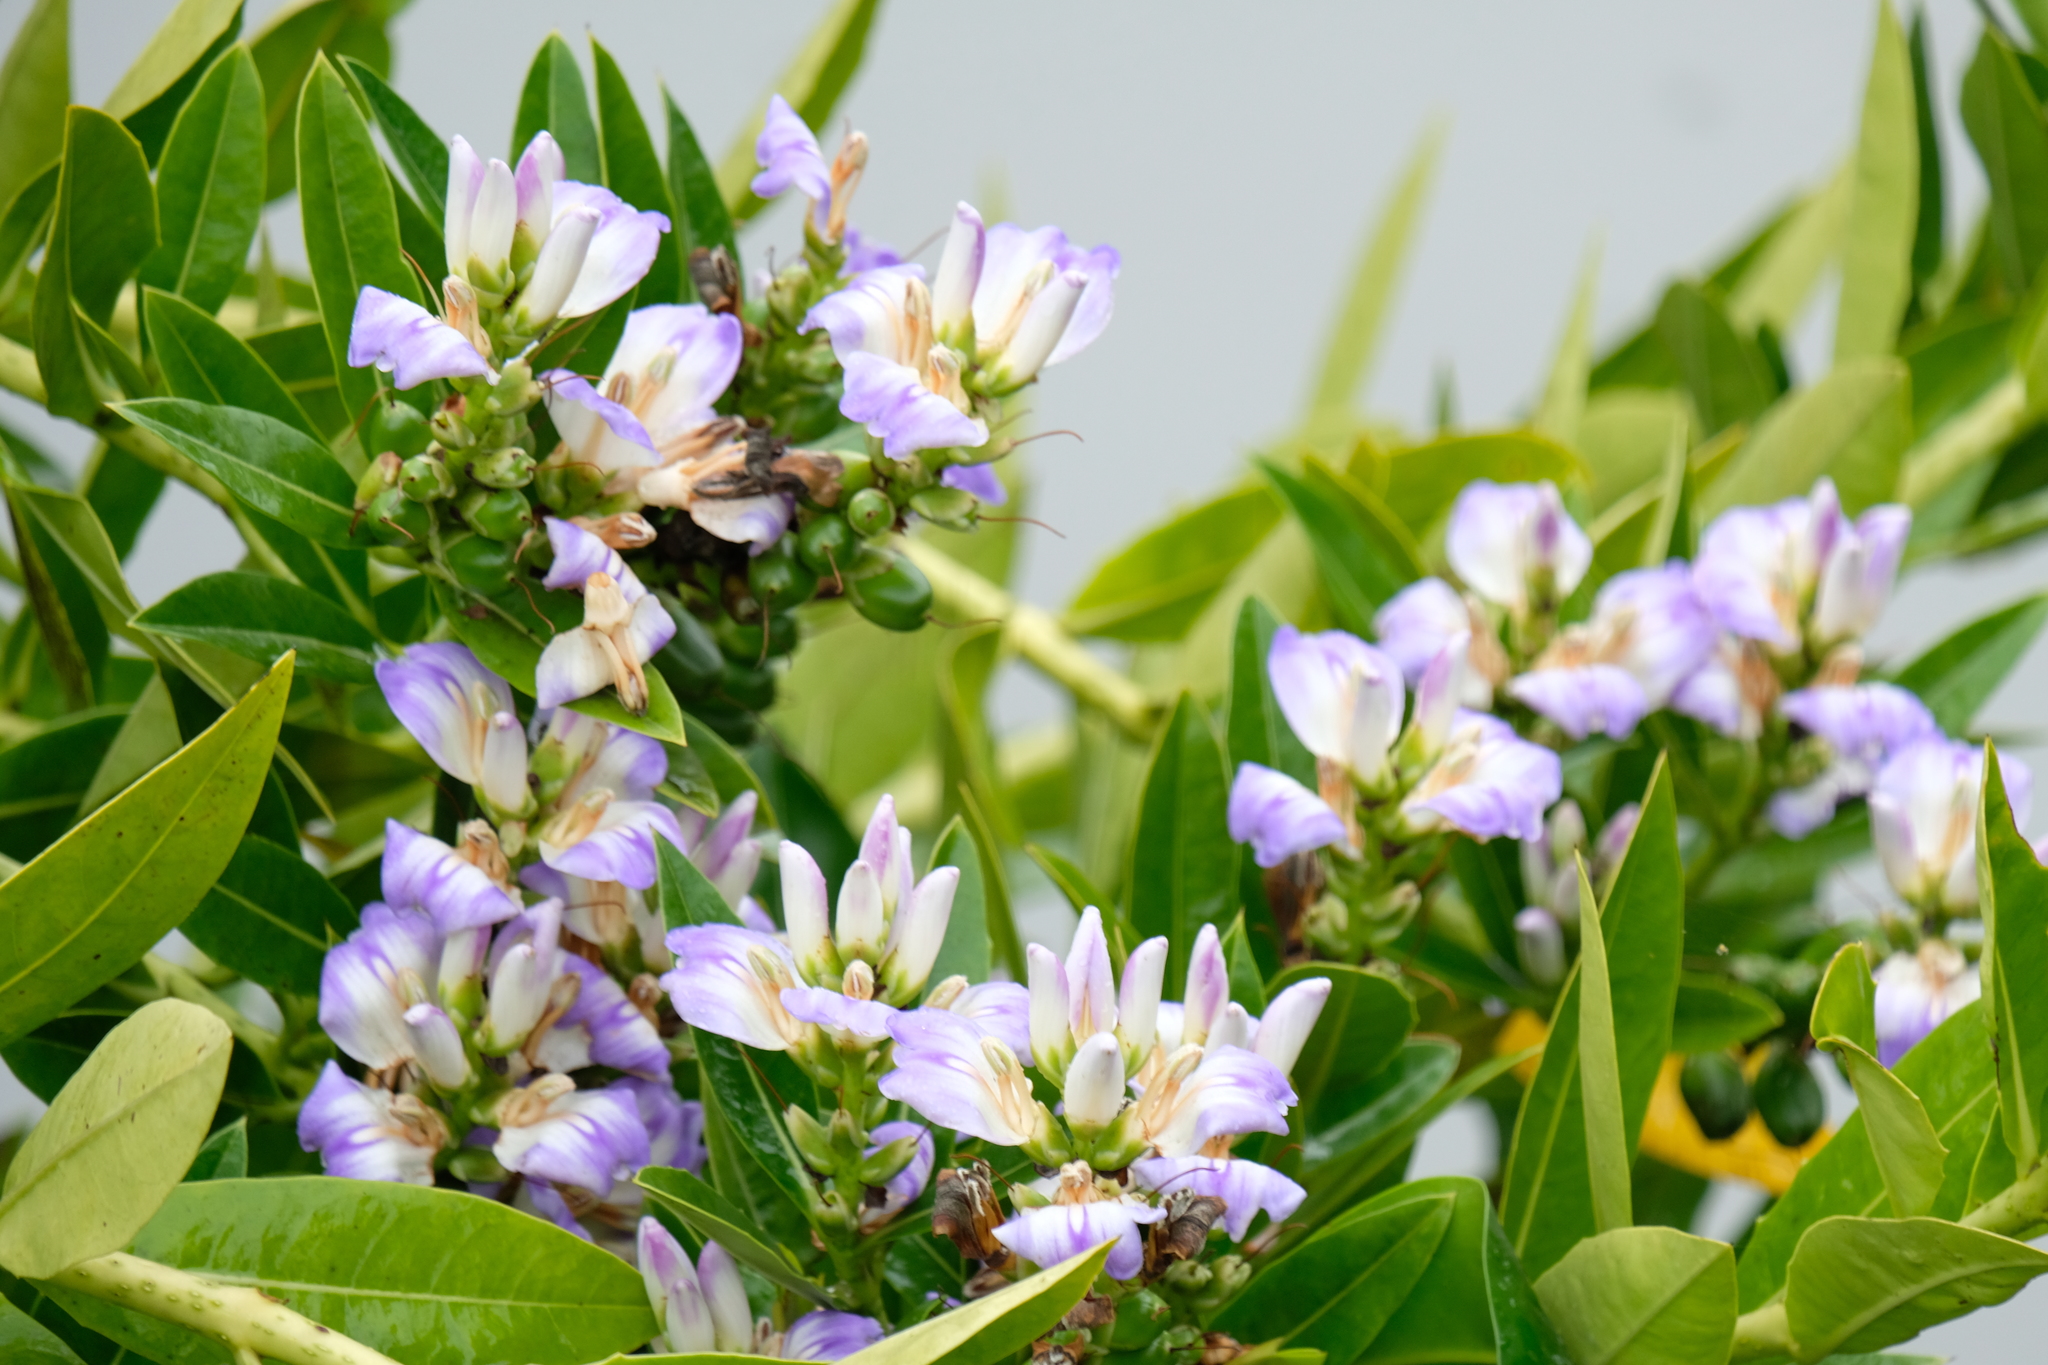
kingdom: Plantae
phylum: Tracheophyta
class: Magnoliopsida
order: Lamiales
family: Acanthaceae
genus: Acanthus
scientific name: Acanthus ilicifolius
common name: Holy mangrove
